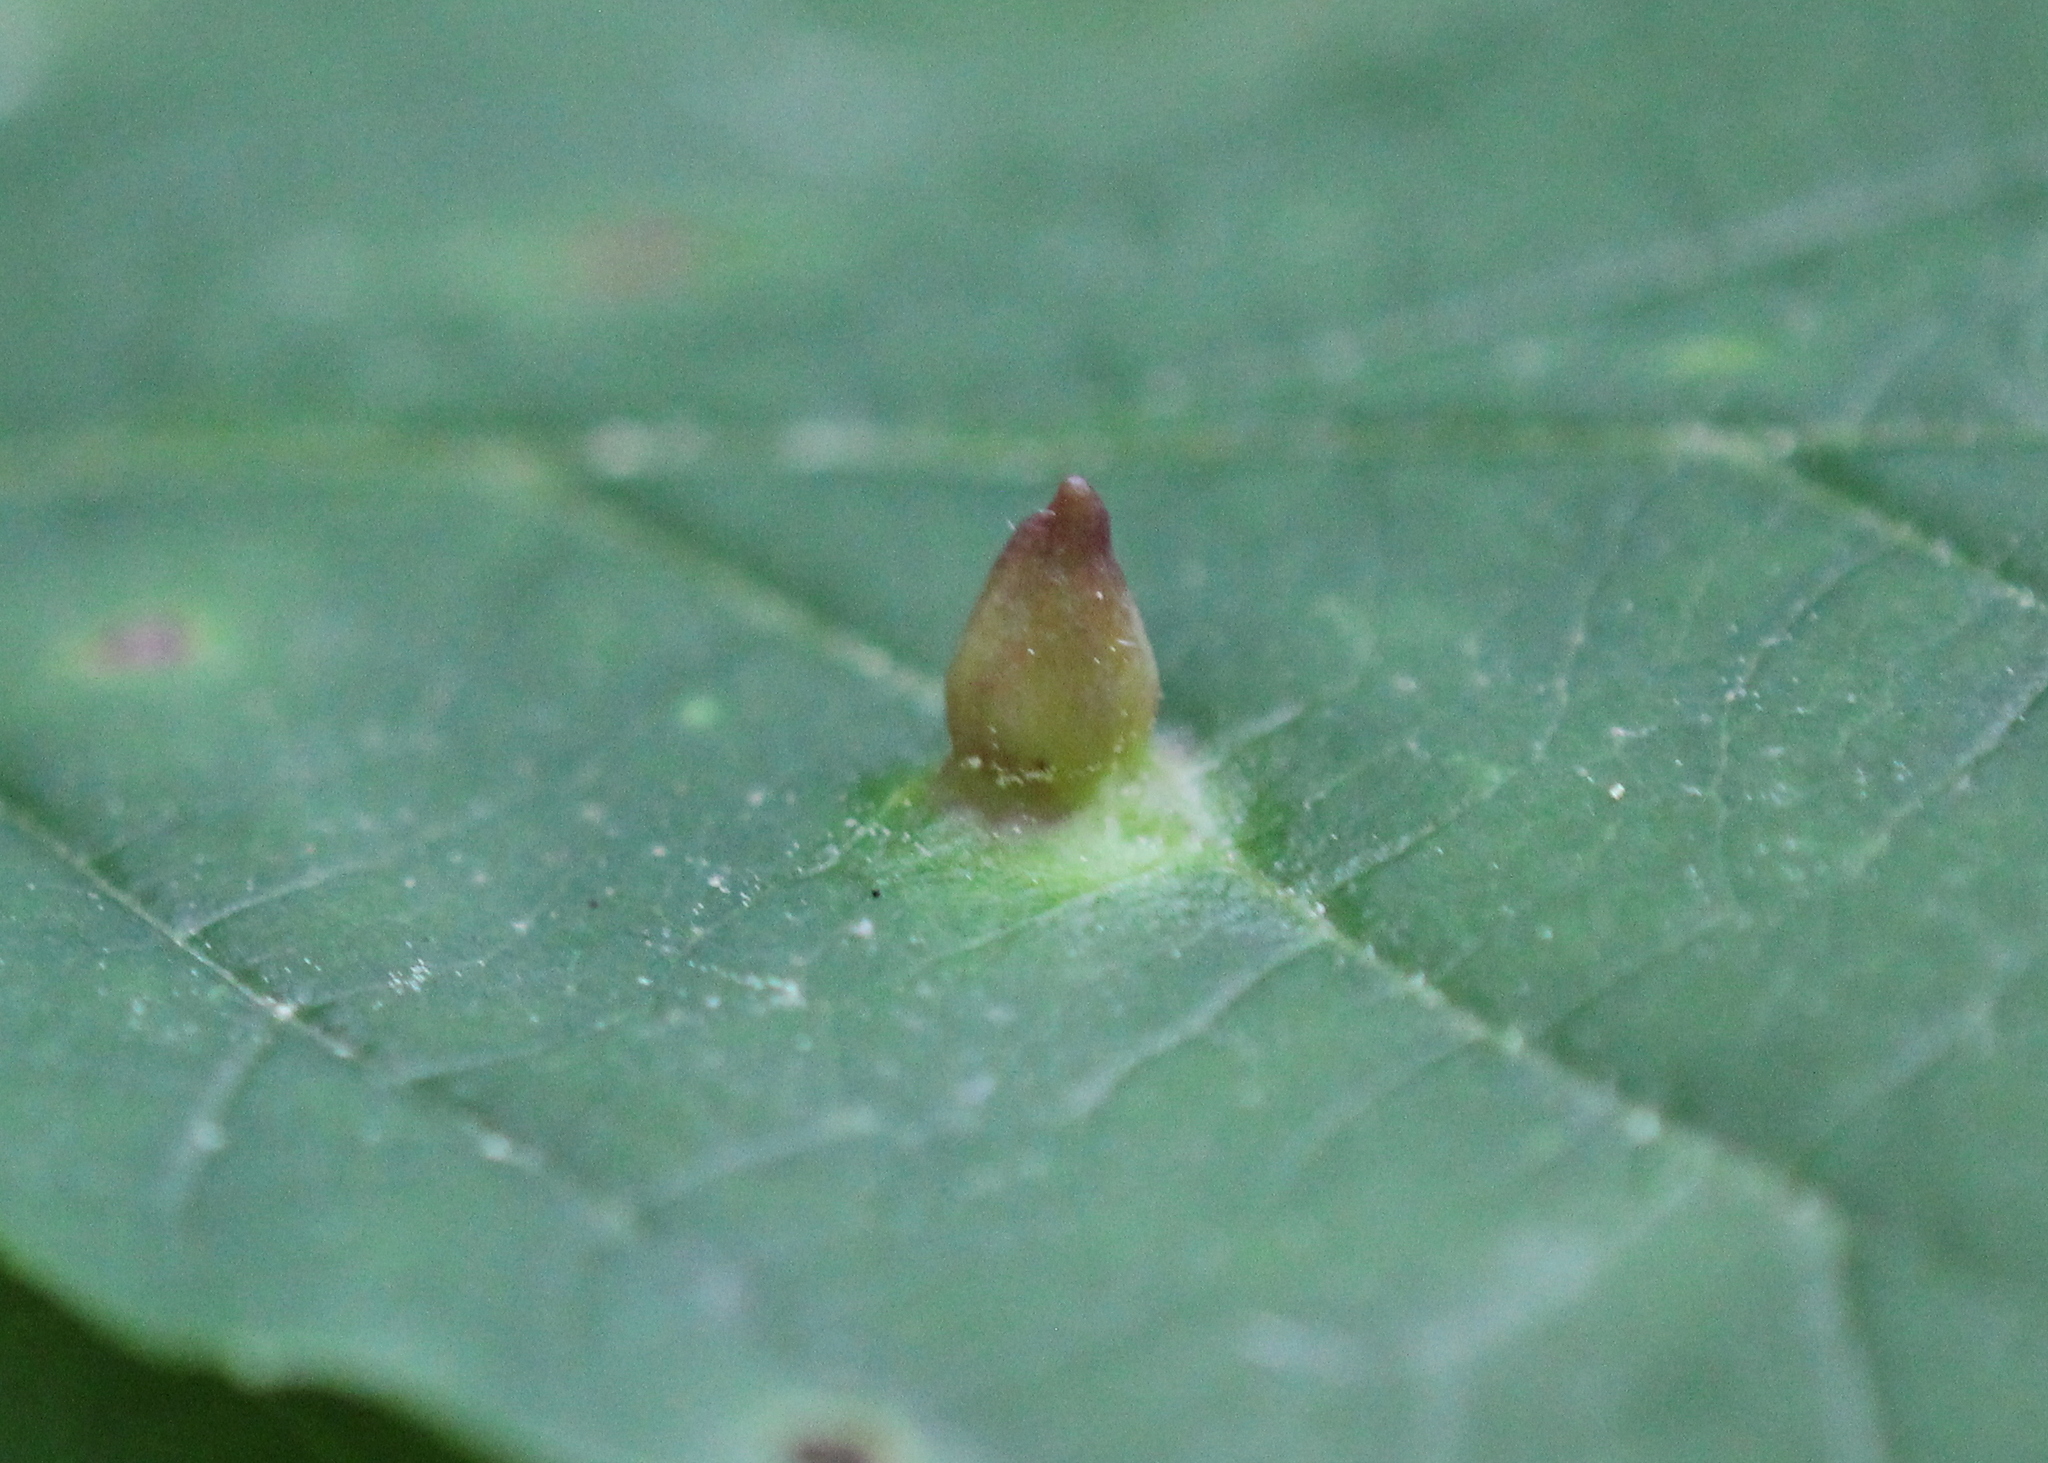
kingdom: Animalia
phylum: Arthropoda
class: Insecta
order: Hemiptera
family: Aphididae
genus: Hormaphis
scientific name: Hormaphis hamamelidis
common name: Witch-hazel cone gall aphid
